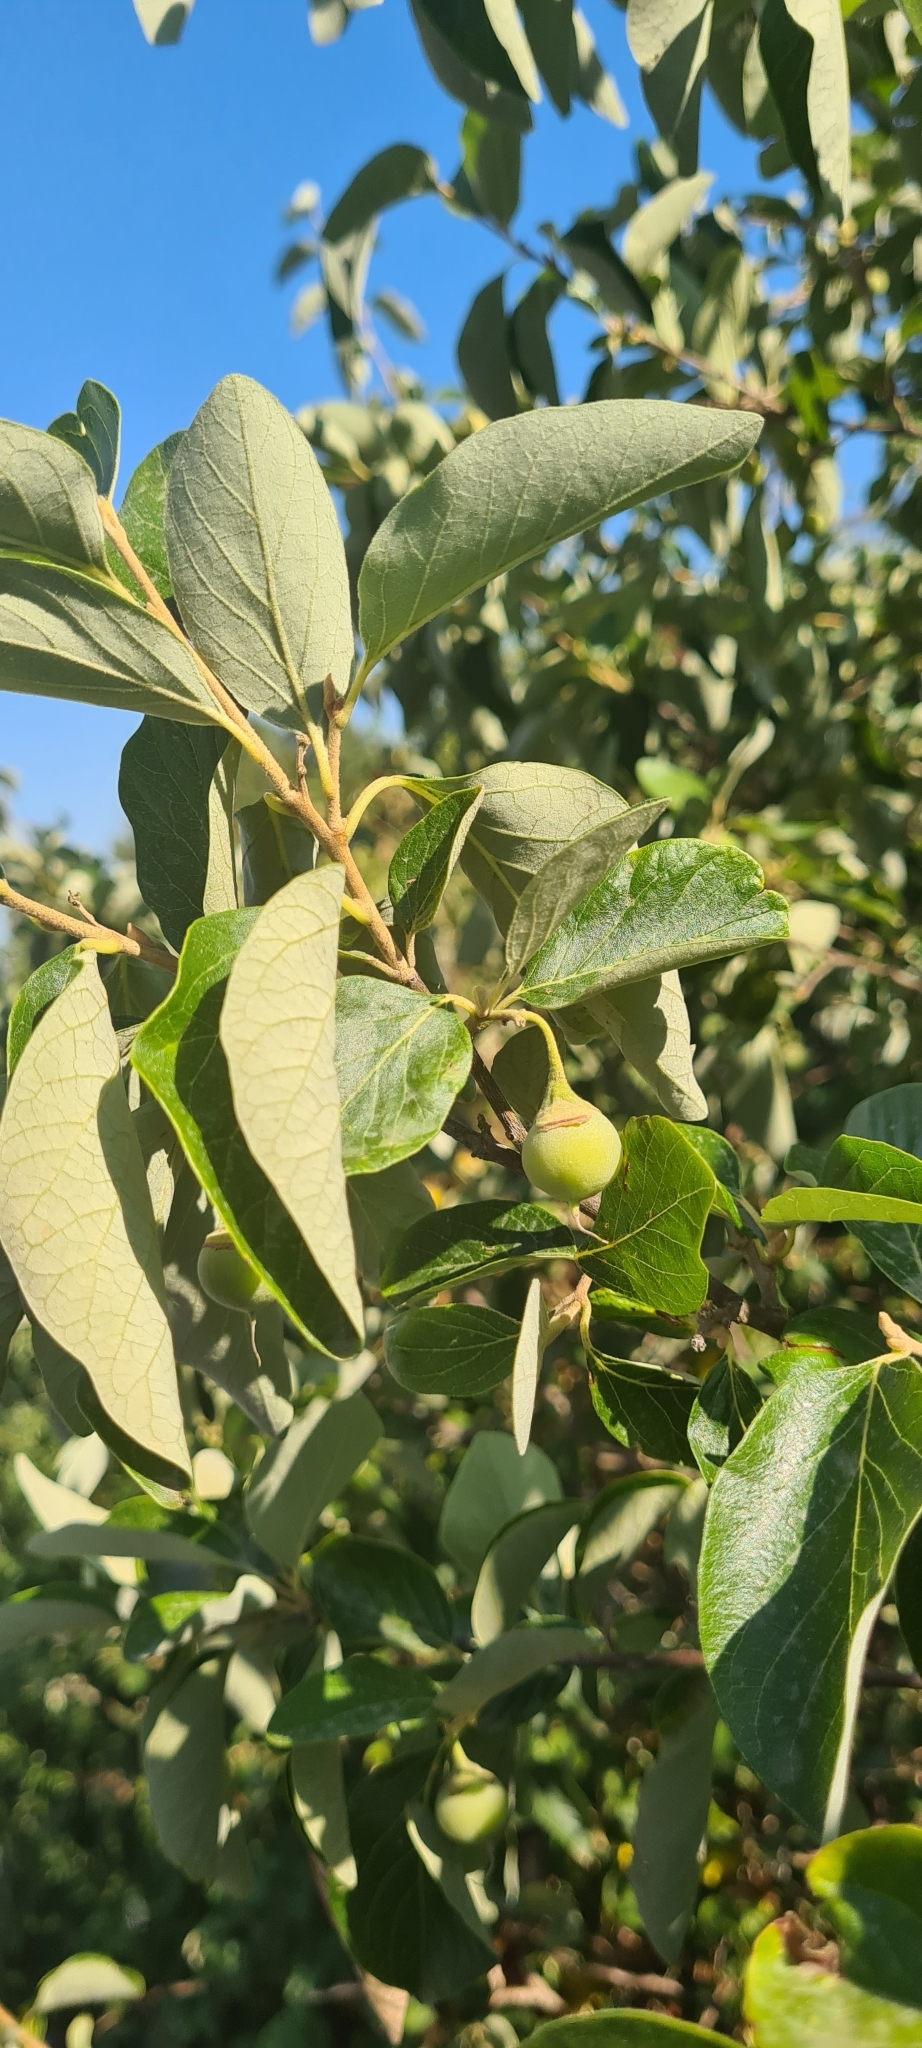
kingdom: Plantae
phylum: Tracheophyta
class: Magnoliopsida
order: Ericales
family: Styracaceae
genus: Styrax
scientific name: Styrax officinalis
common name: Storax
